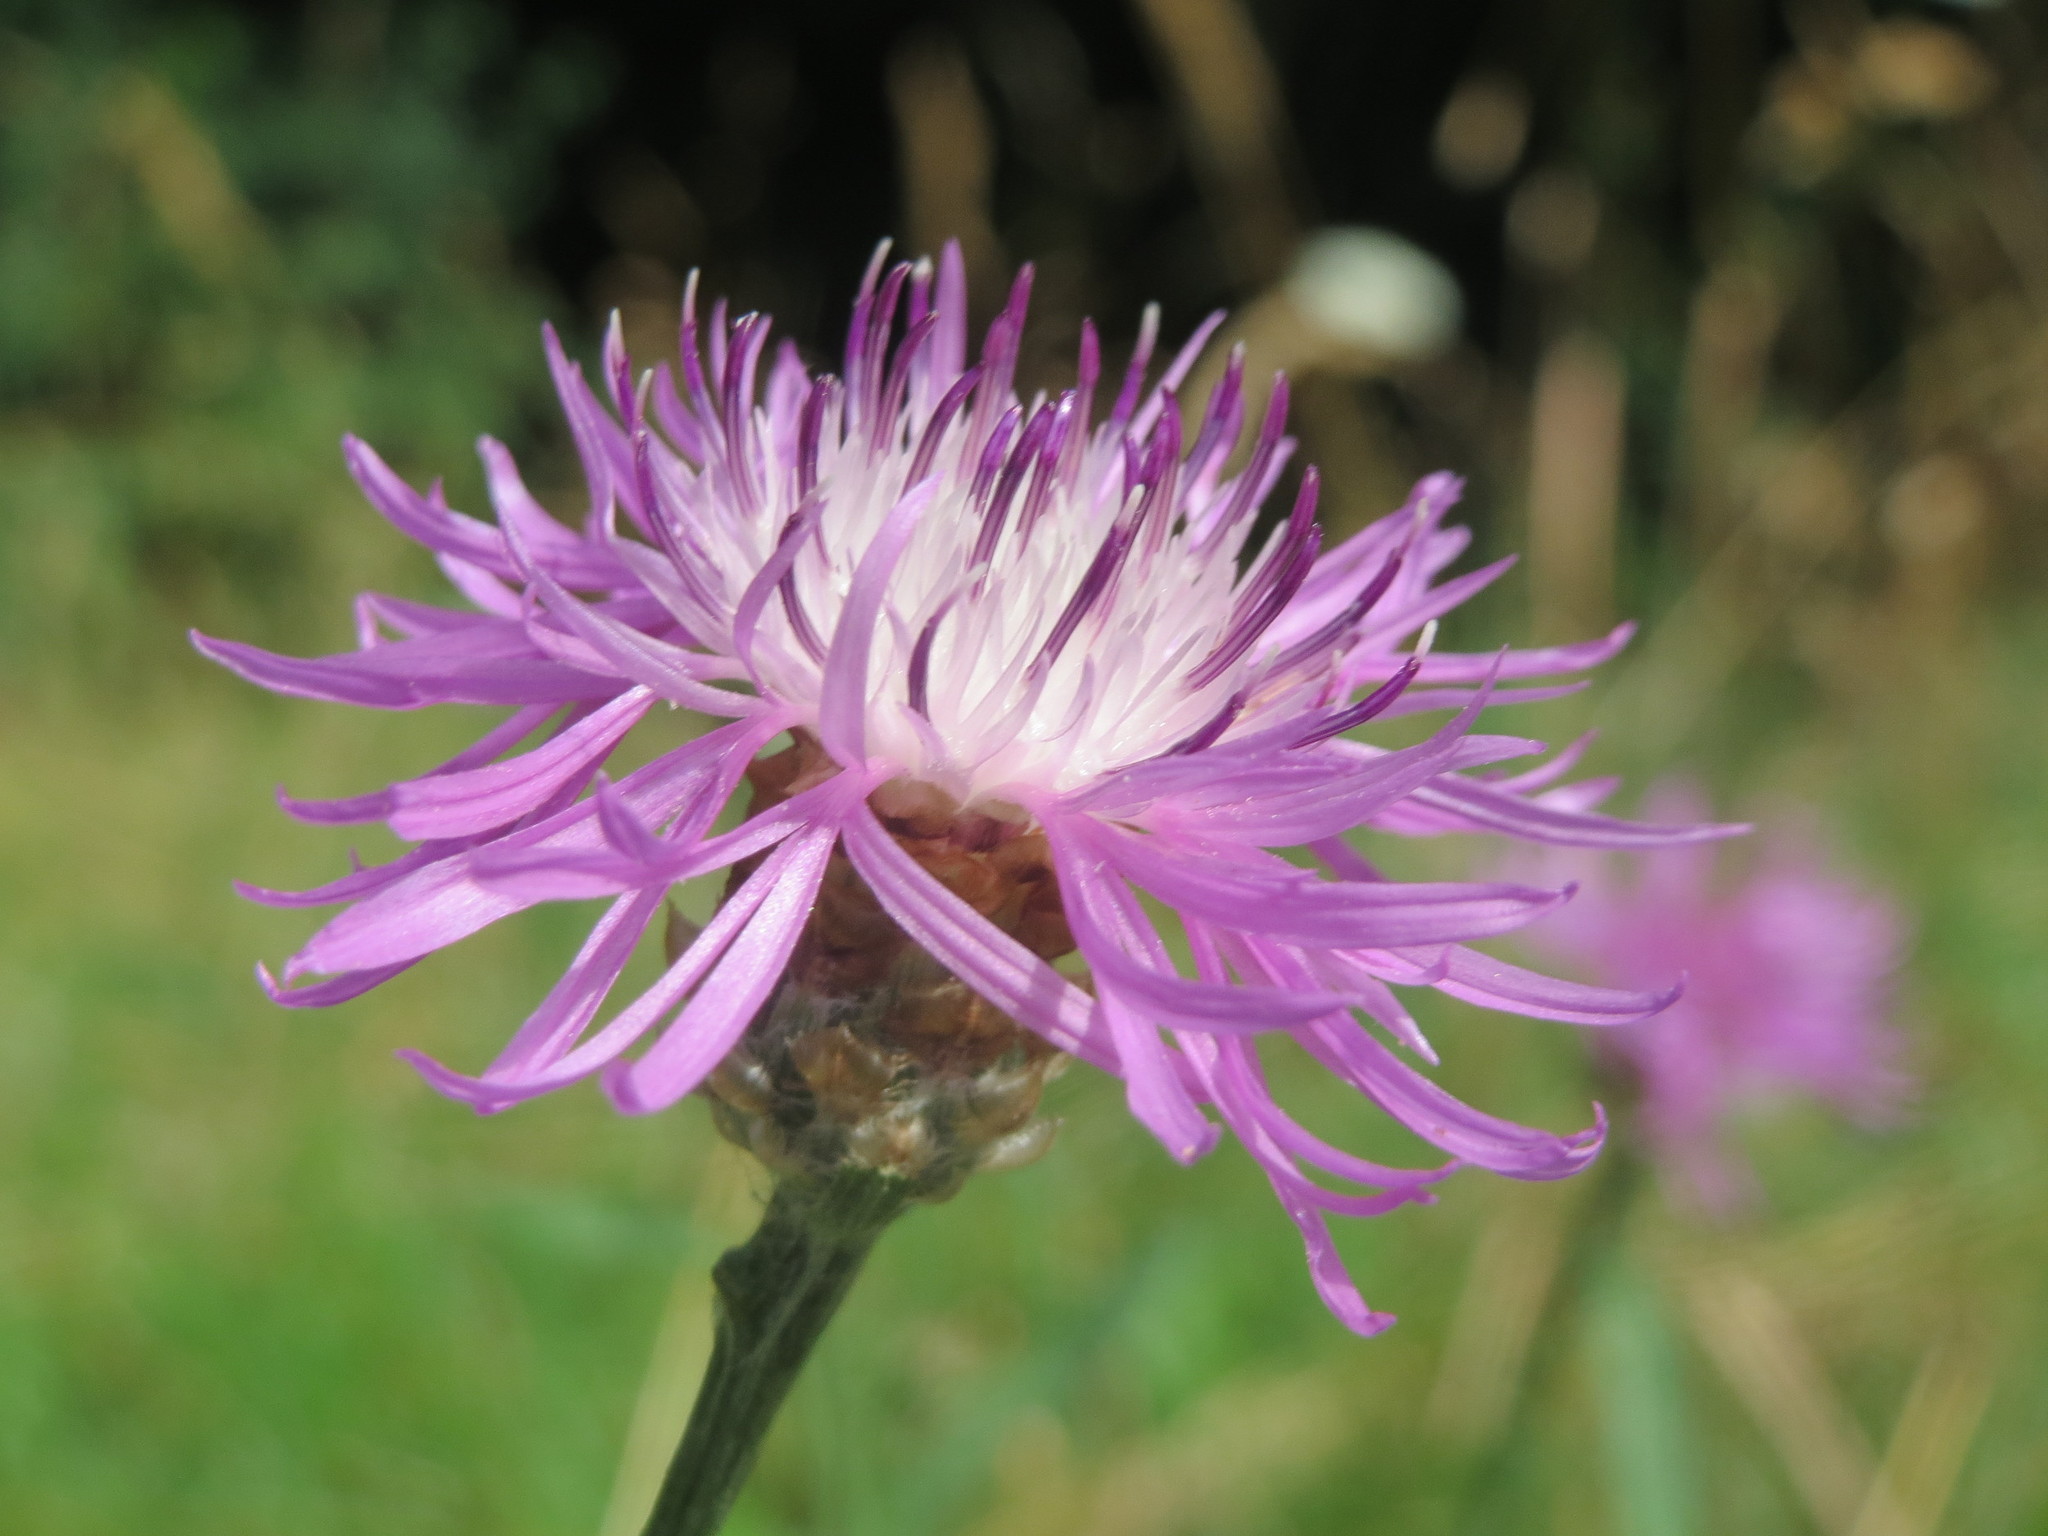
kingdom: Plantae
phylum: Tracheophyta
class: Magnoliopsida
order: Asterales
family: Asteraceae
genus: Centaurea
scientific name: Centaurea jacea
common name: Brown knapweed
